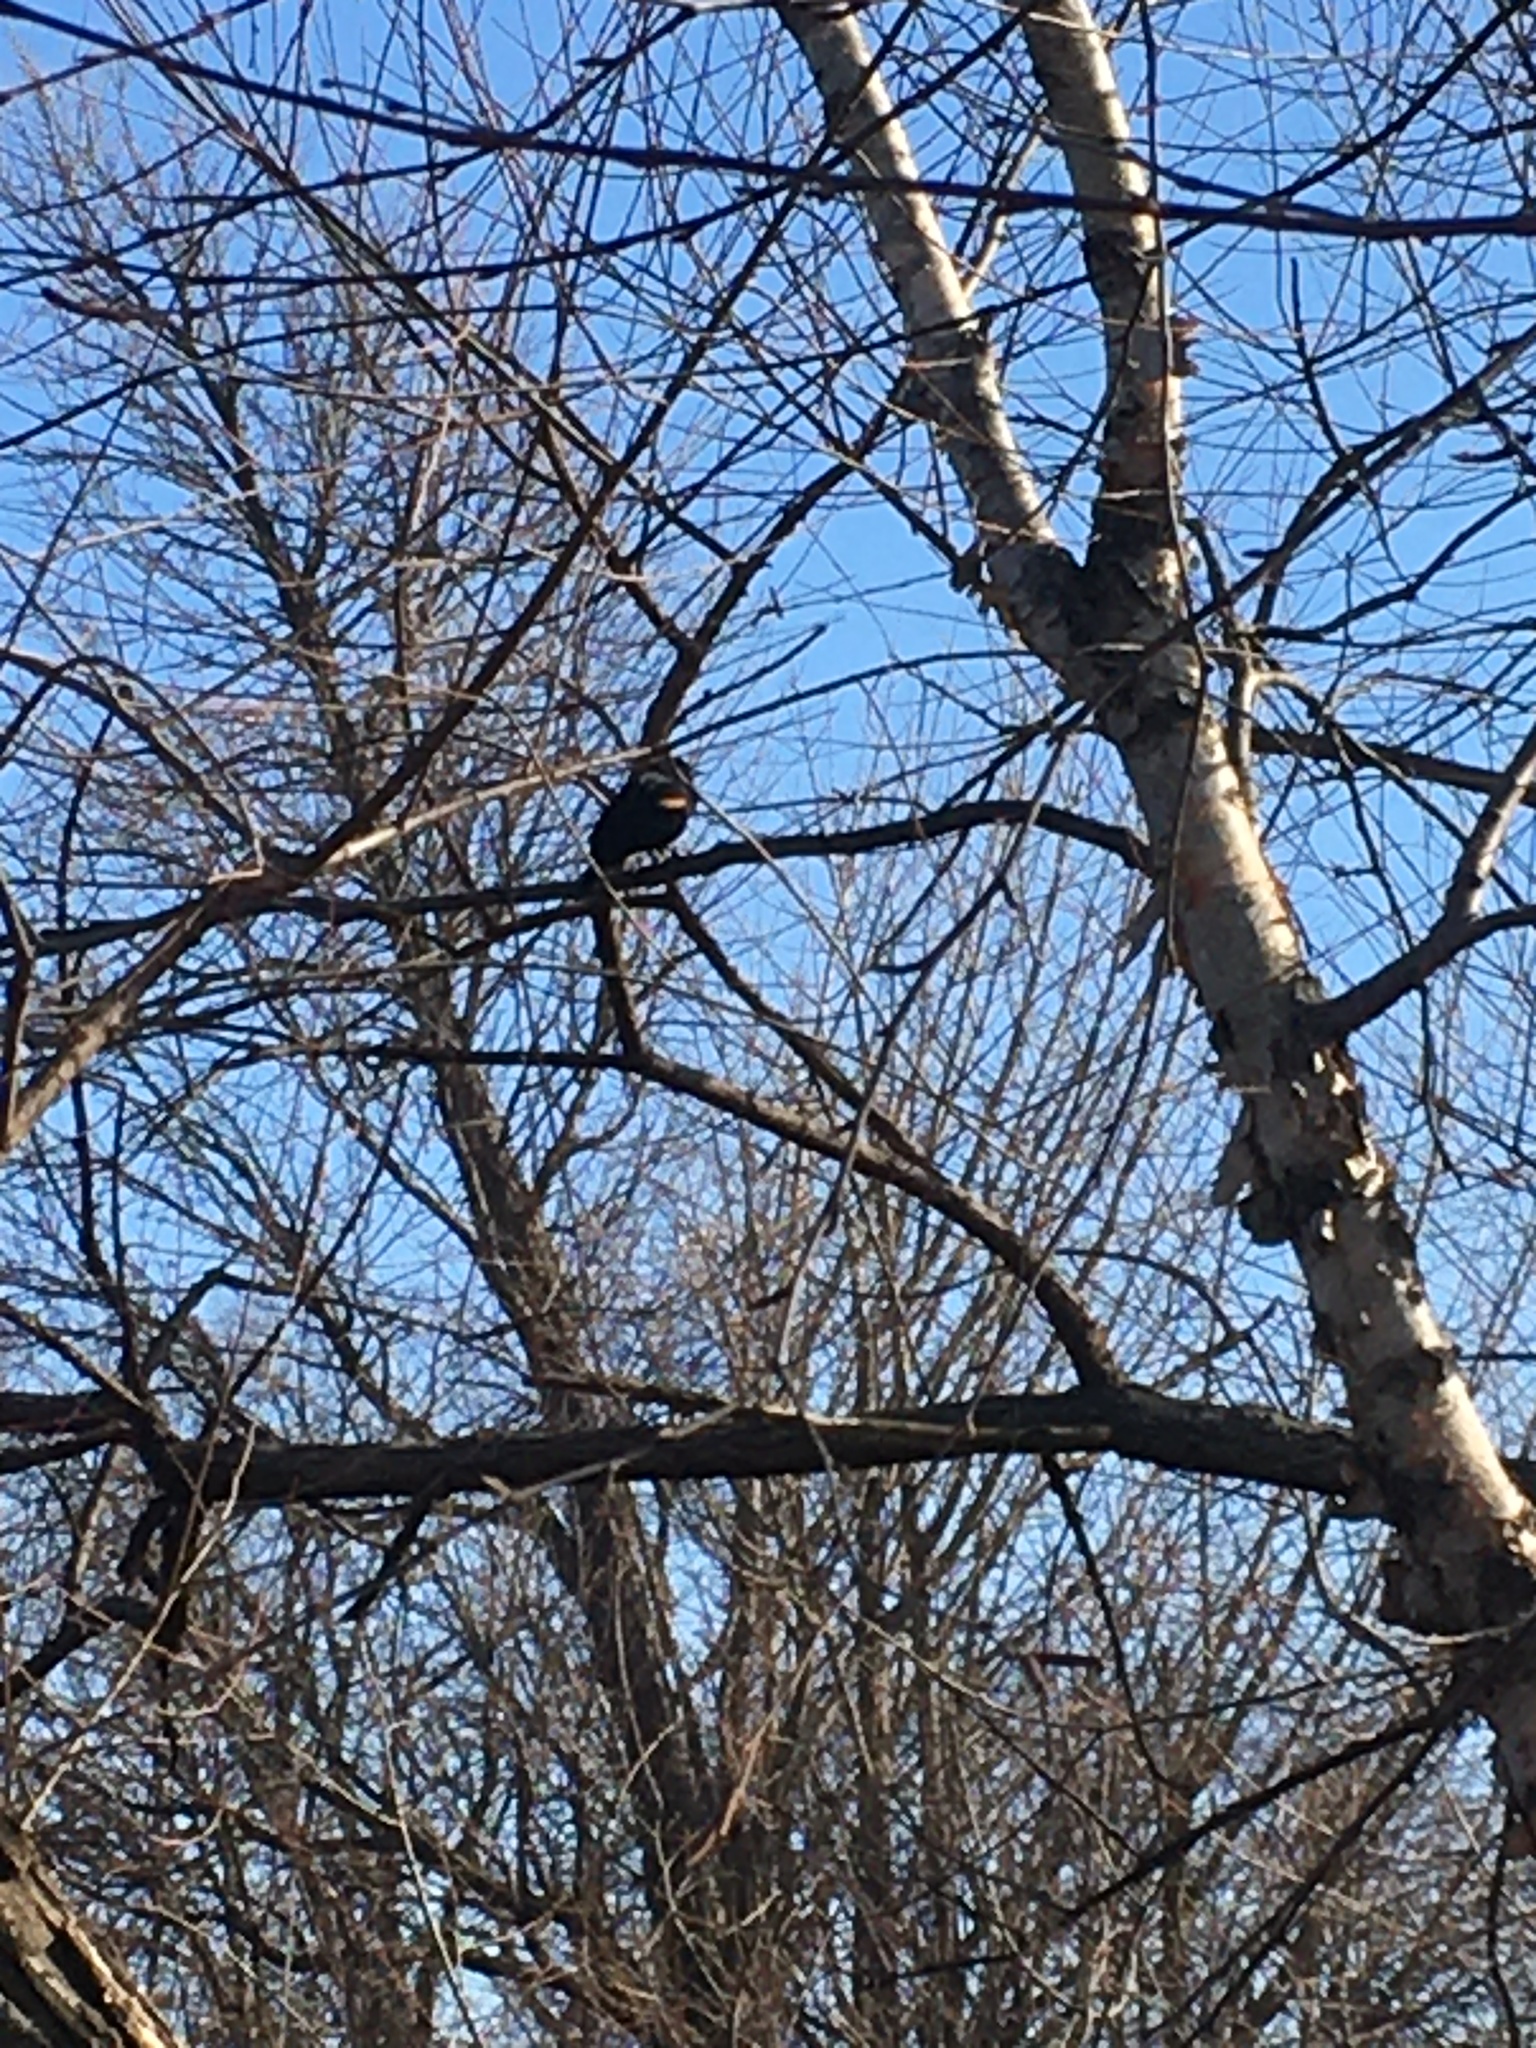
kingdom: Animalia
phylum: Chordata
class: Aves
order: Passeriformes
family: Icteridae
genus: Agelaius
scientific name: Agelaius phoeniceus
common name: Red-winged blackbird
